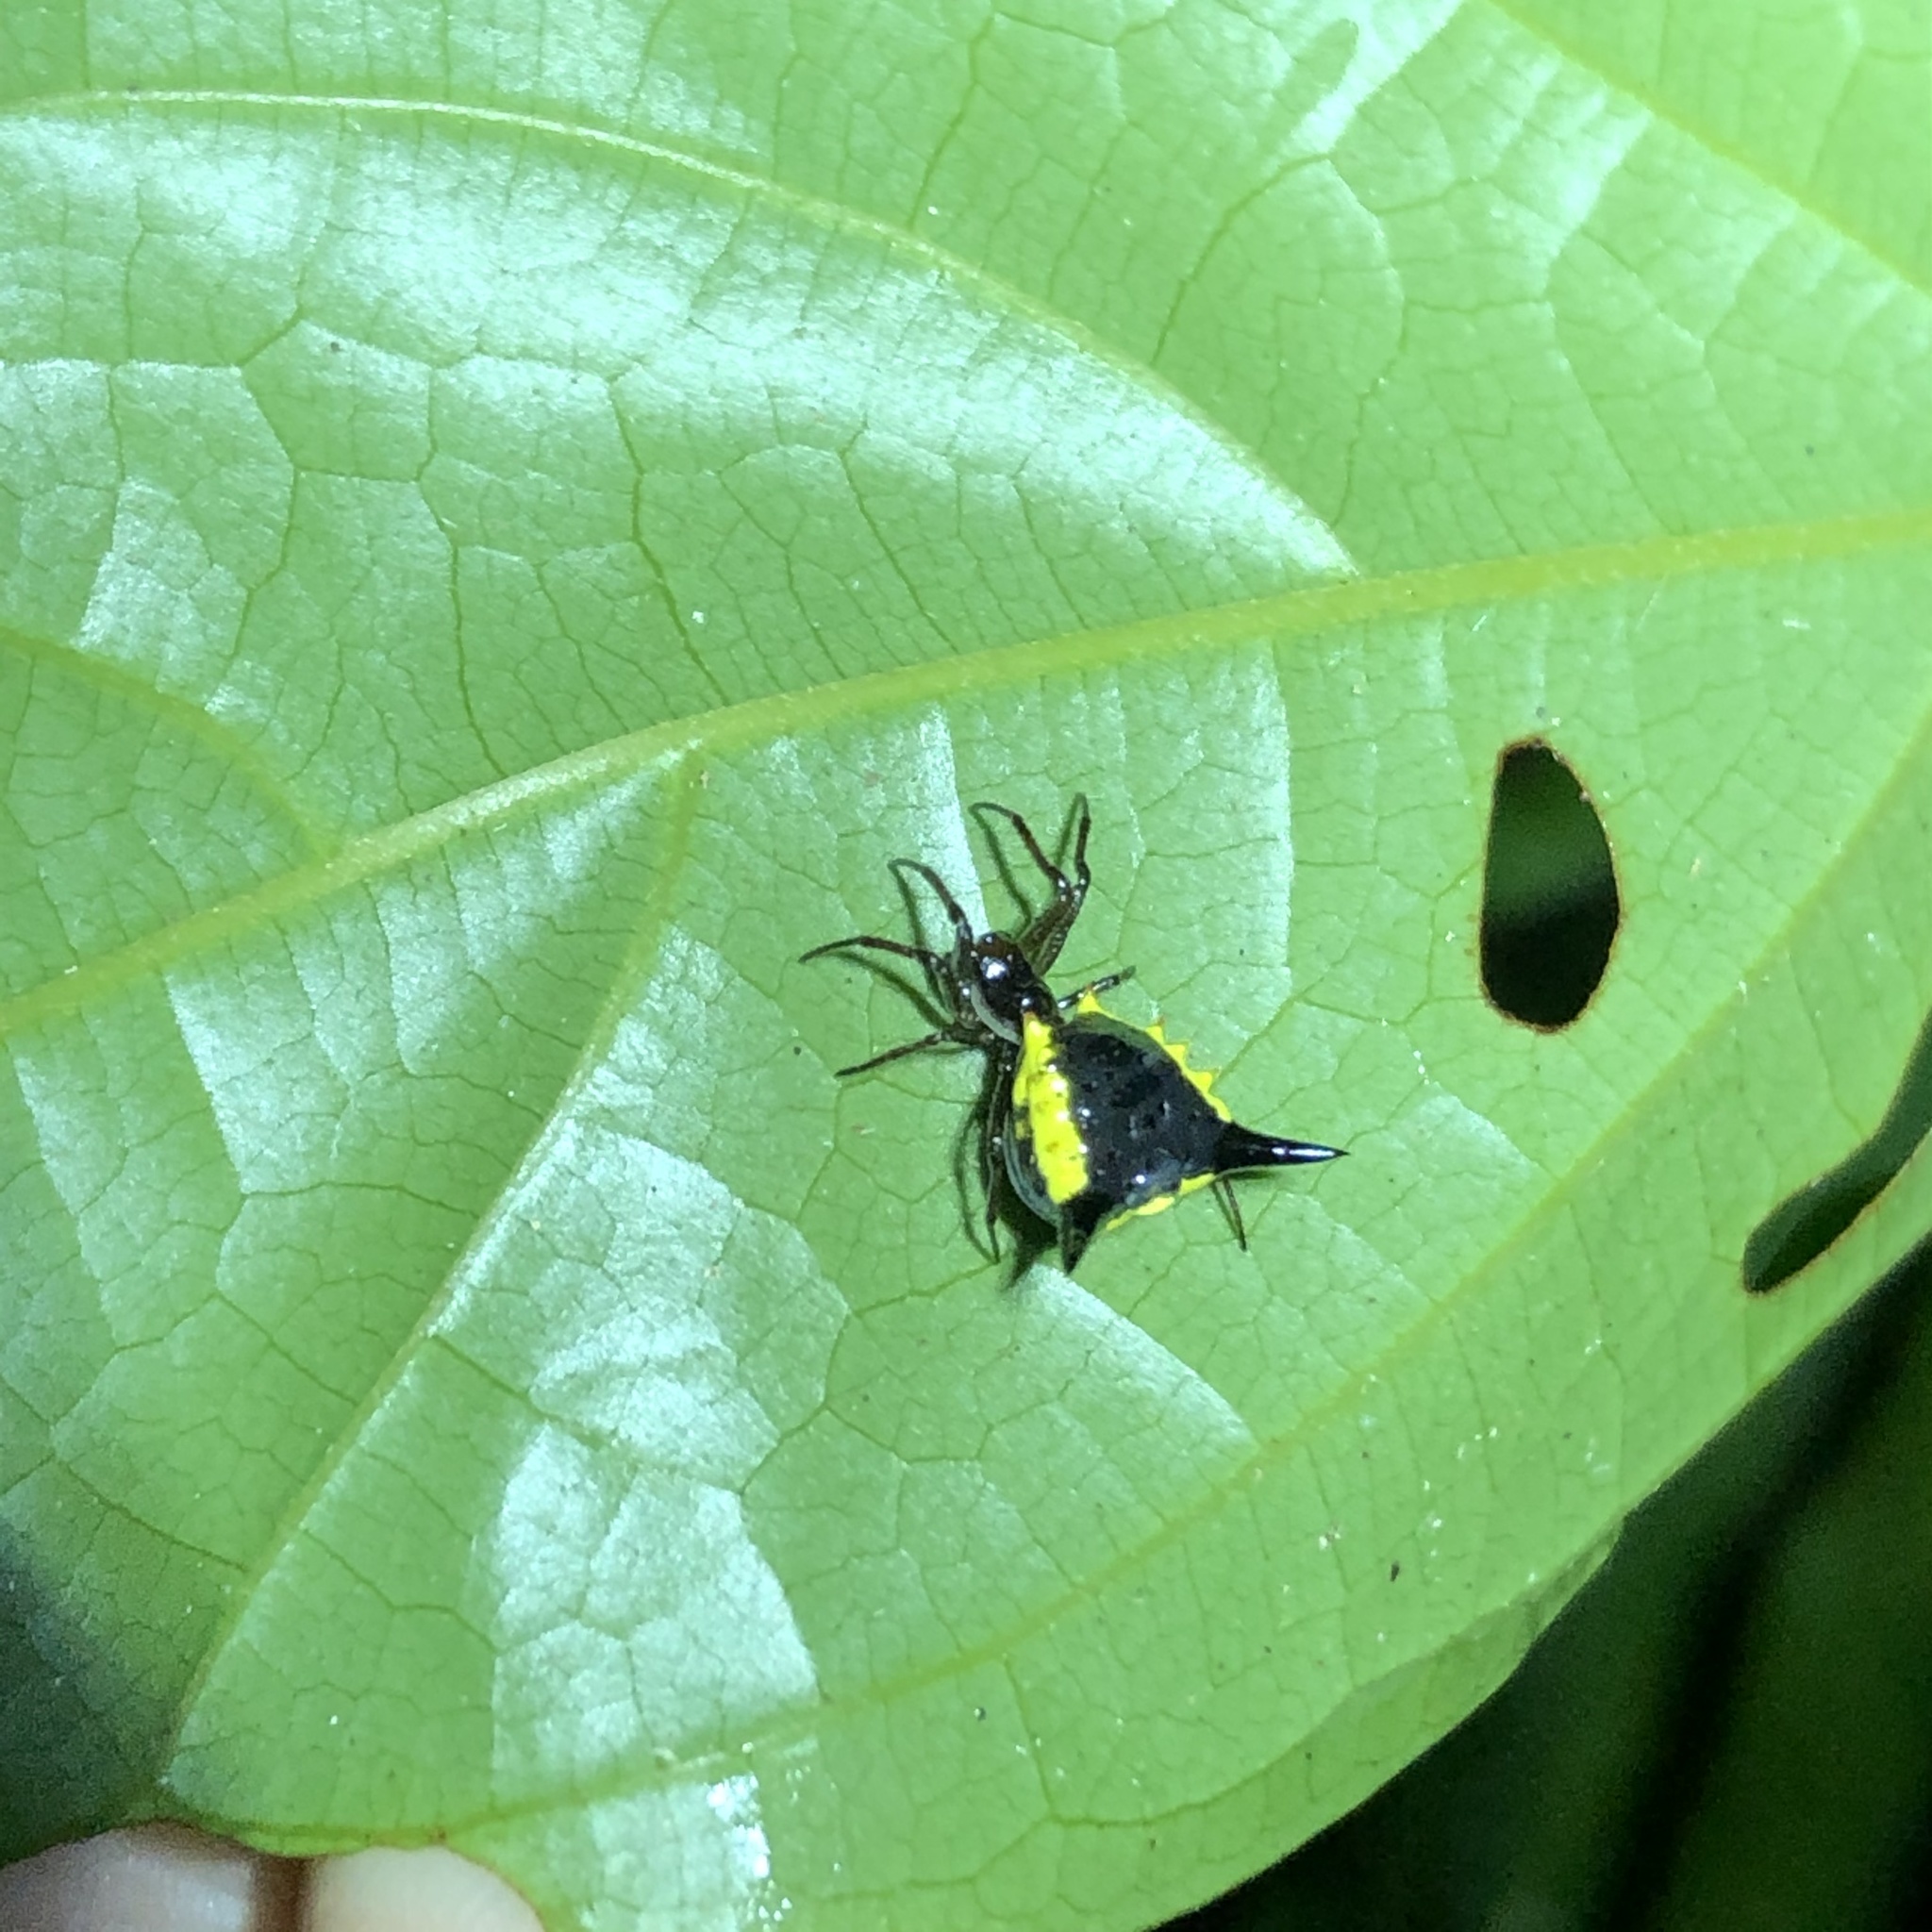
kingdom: Animalia
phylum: Arthropoda
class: Arachnida
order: Araneae
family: Araneidae
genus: Micrathena
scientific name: Micrathena pungens
